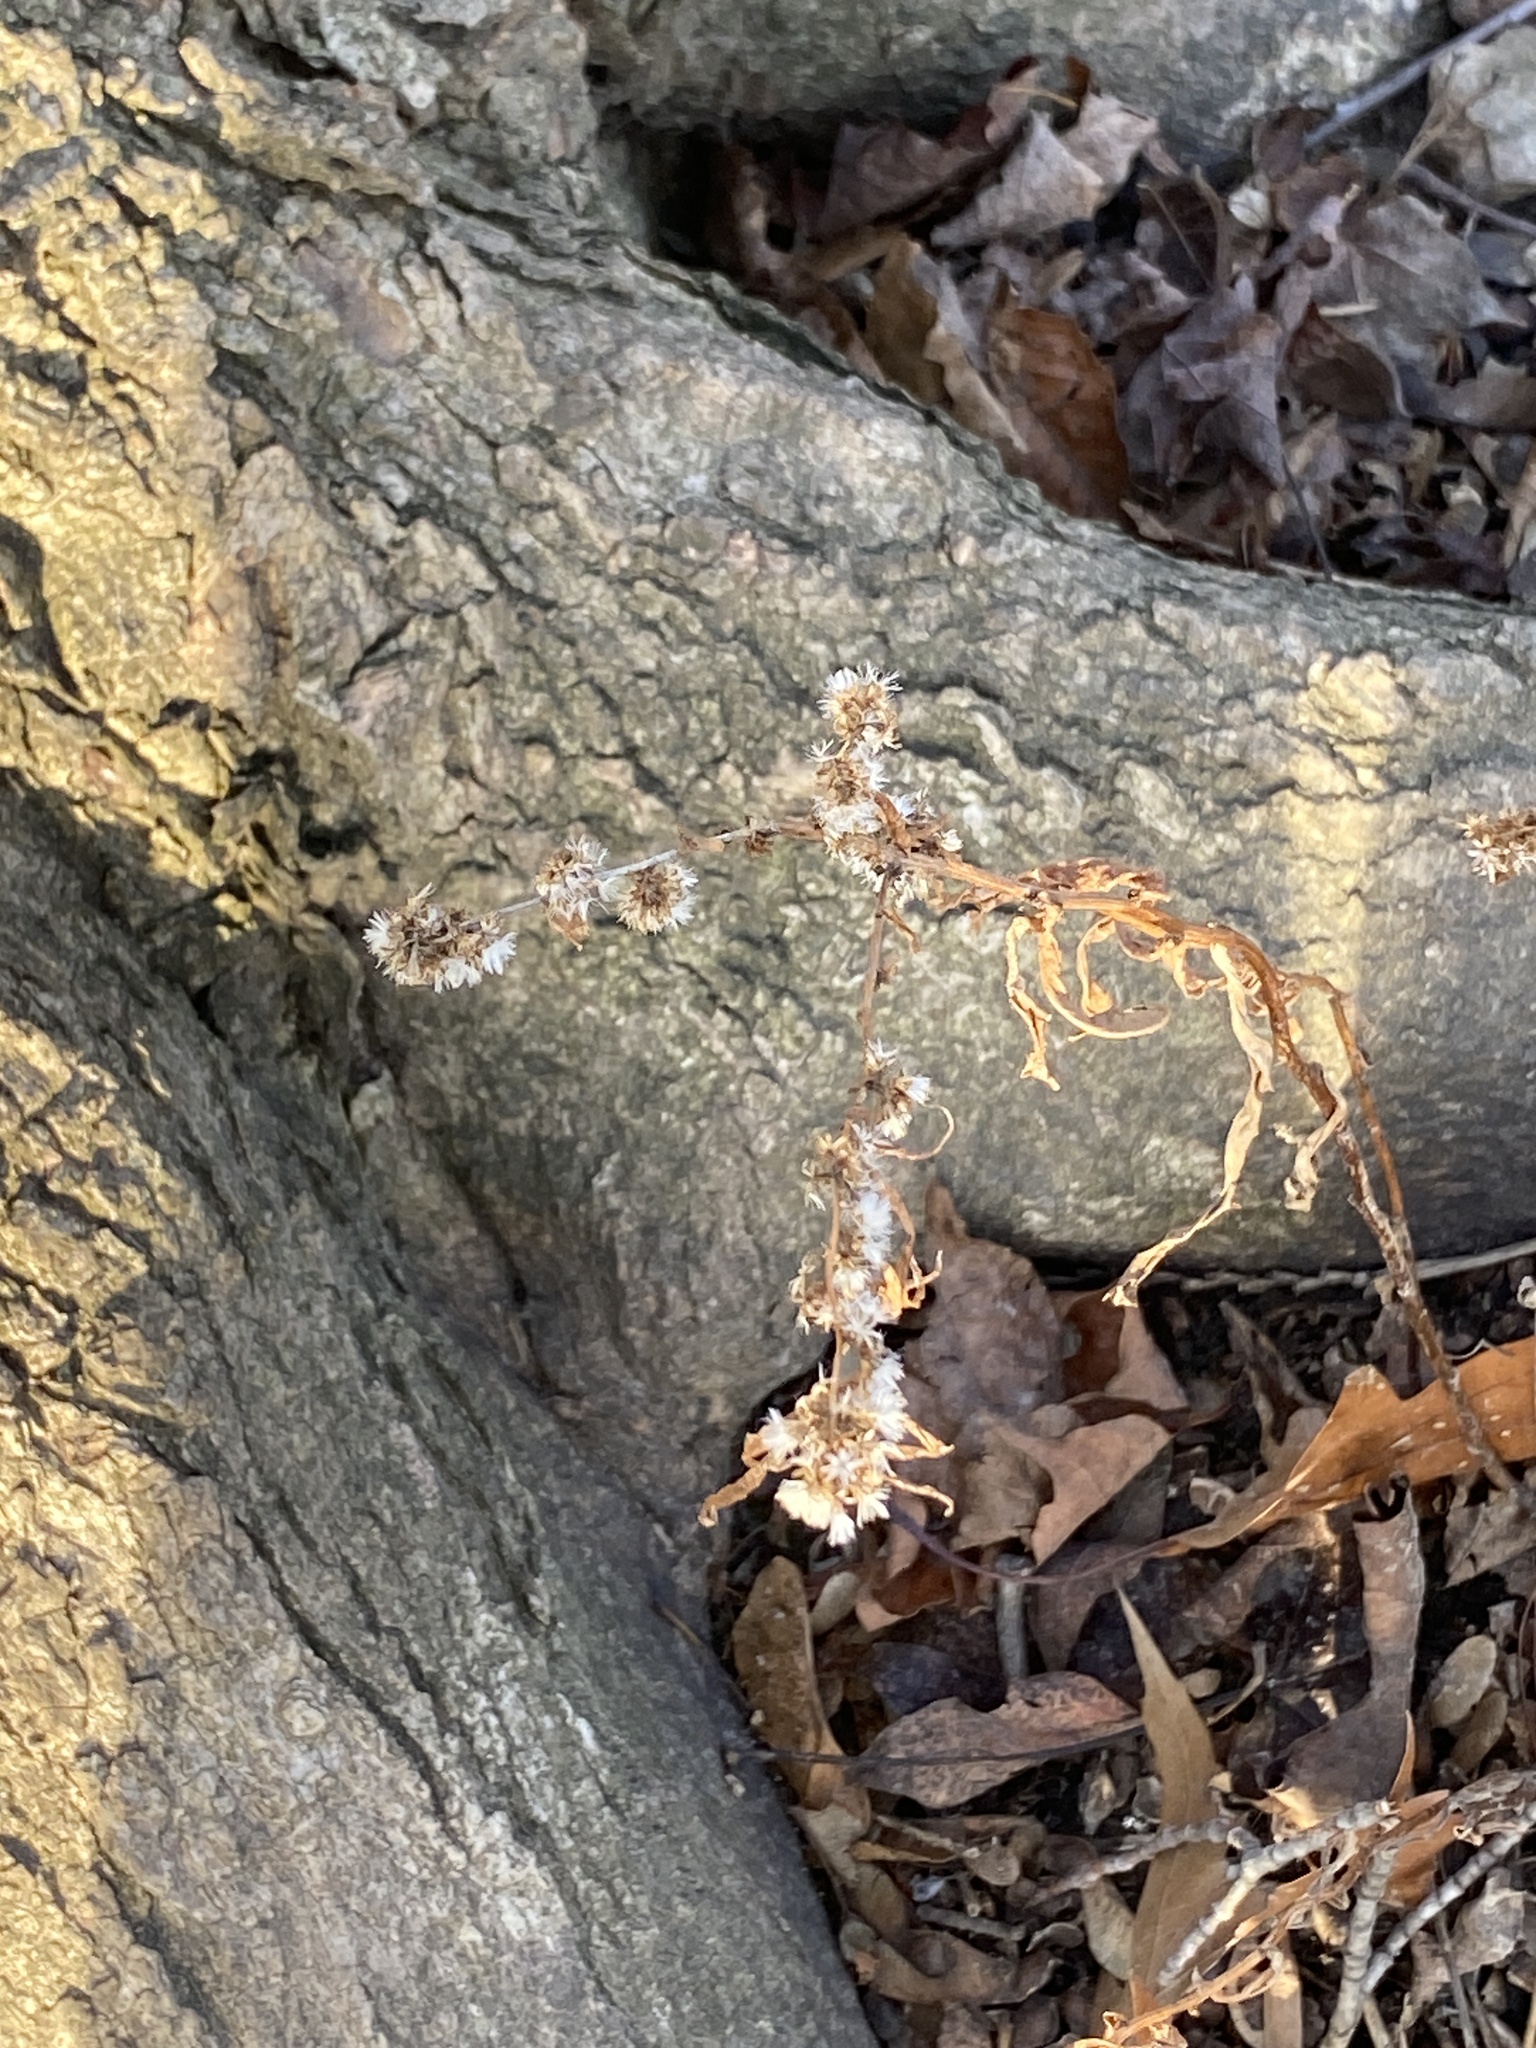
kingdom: Plantae
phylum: Tracheophyta
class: Magnoliopsida
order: Asterales
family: Asteraceae
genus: Solidago
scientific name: Solidago caesia
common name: Woodland goldenrod
